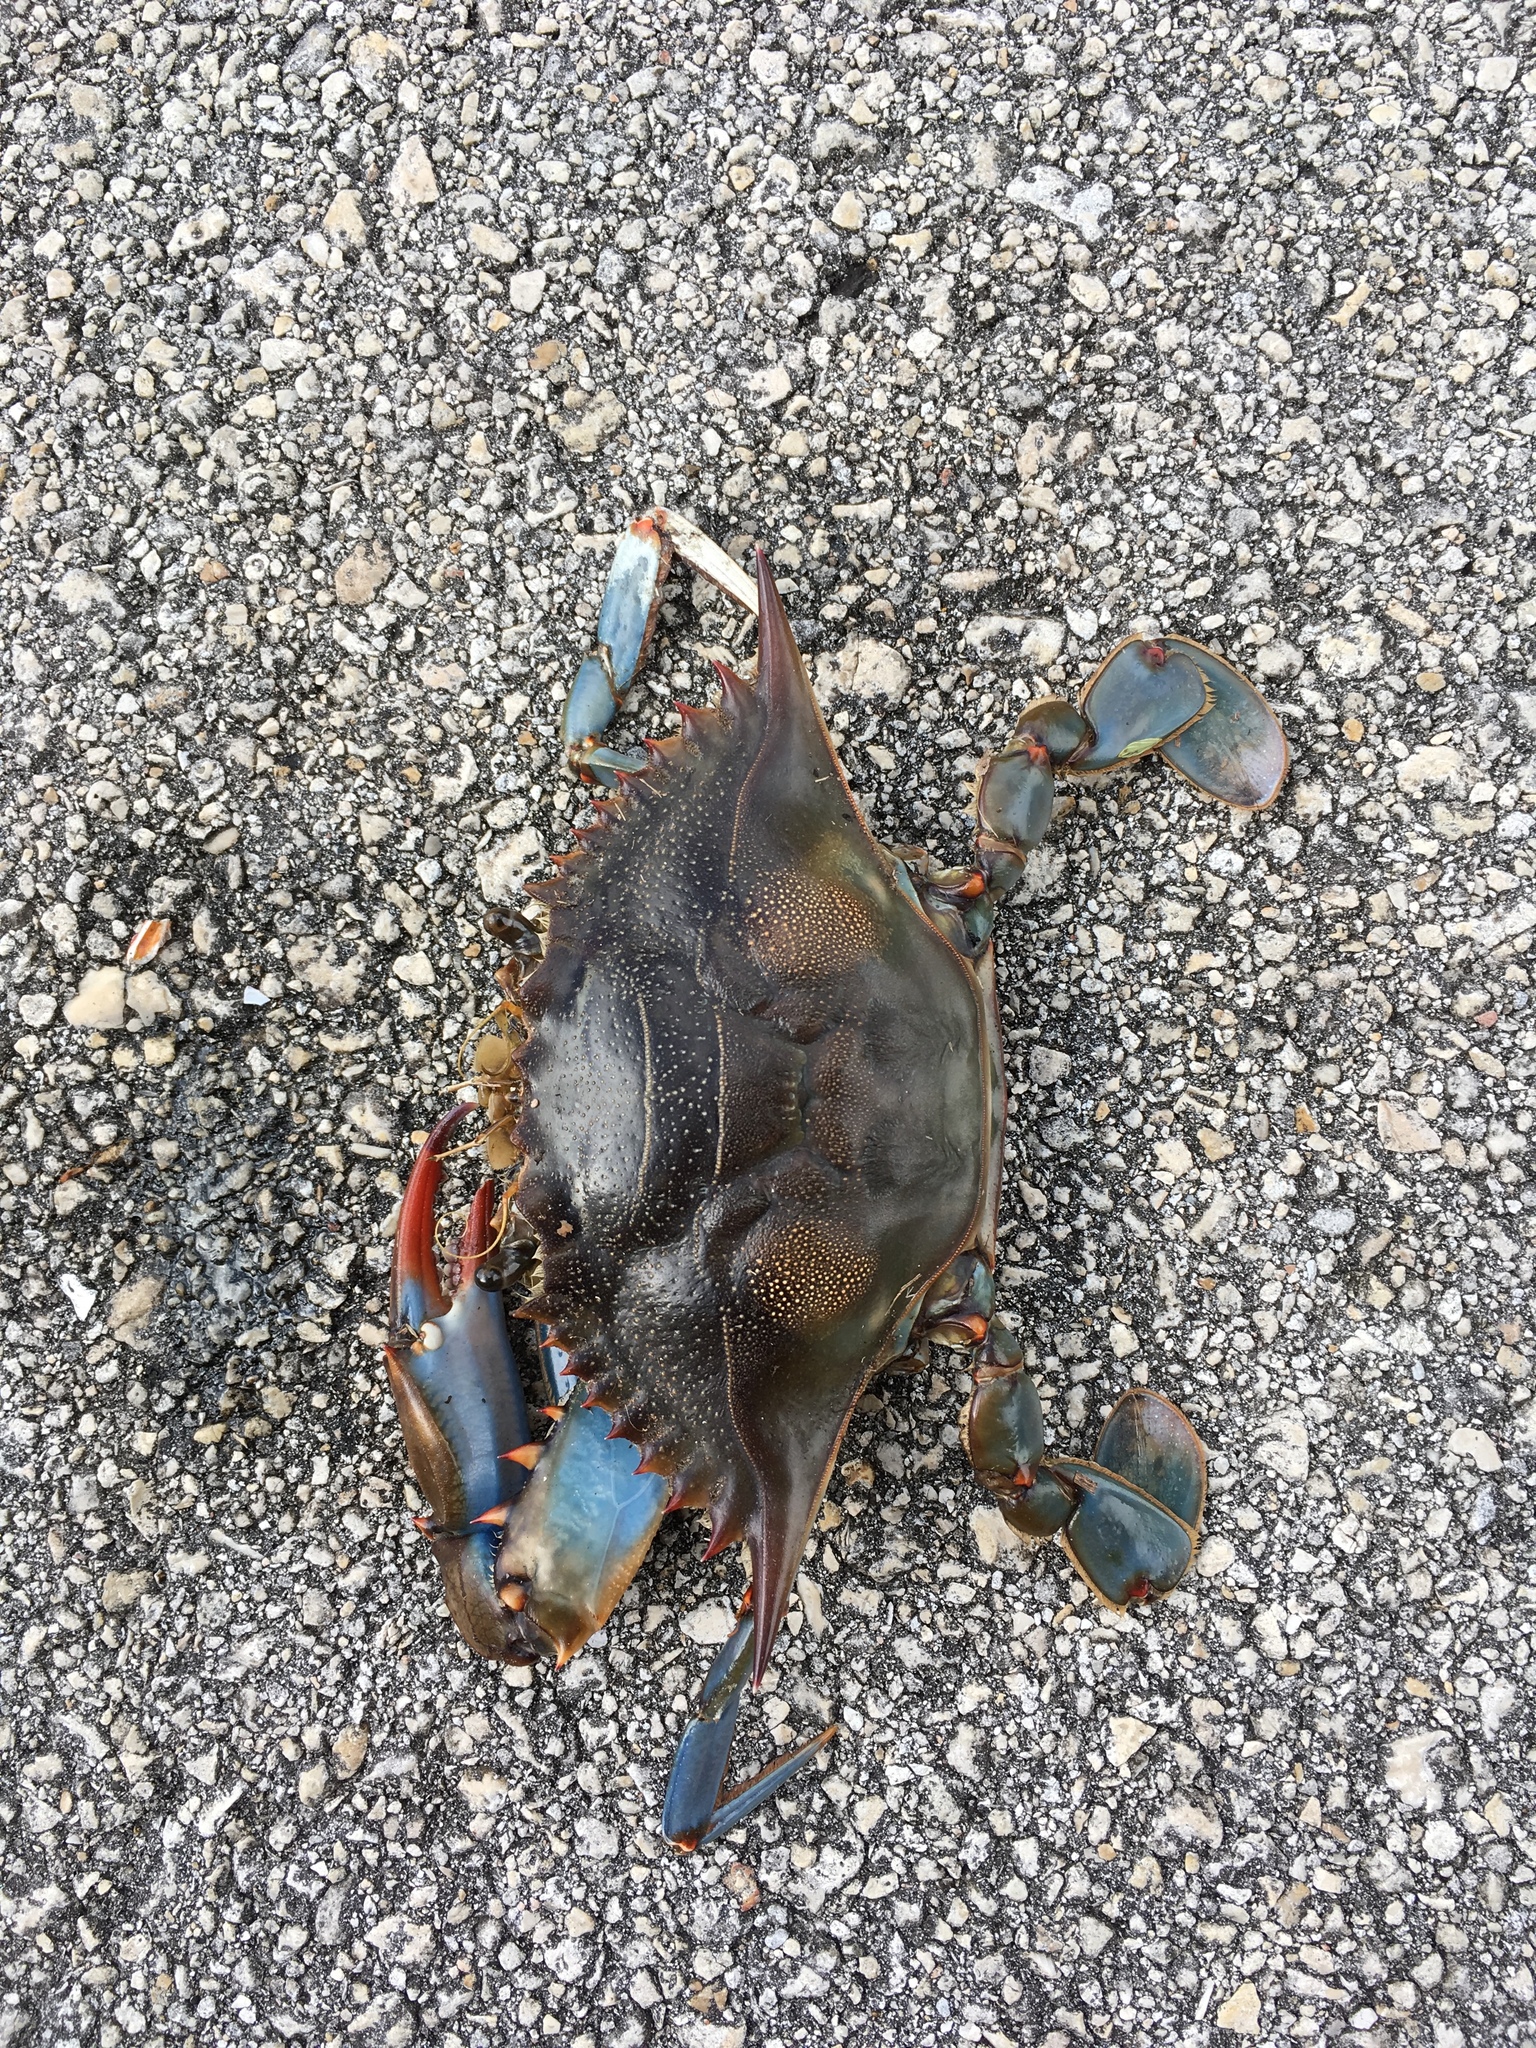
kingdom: Animalia
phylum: Arthropoda
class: Malacostraca
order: Decapoda
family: Portunidae
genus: Callinectes
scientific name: Callinectes sapidus
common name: Blue crab
